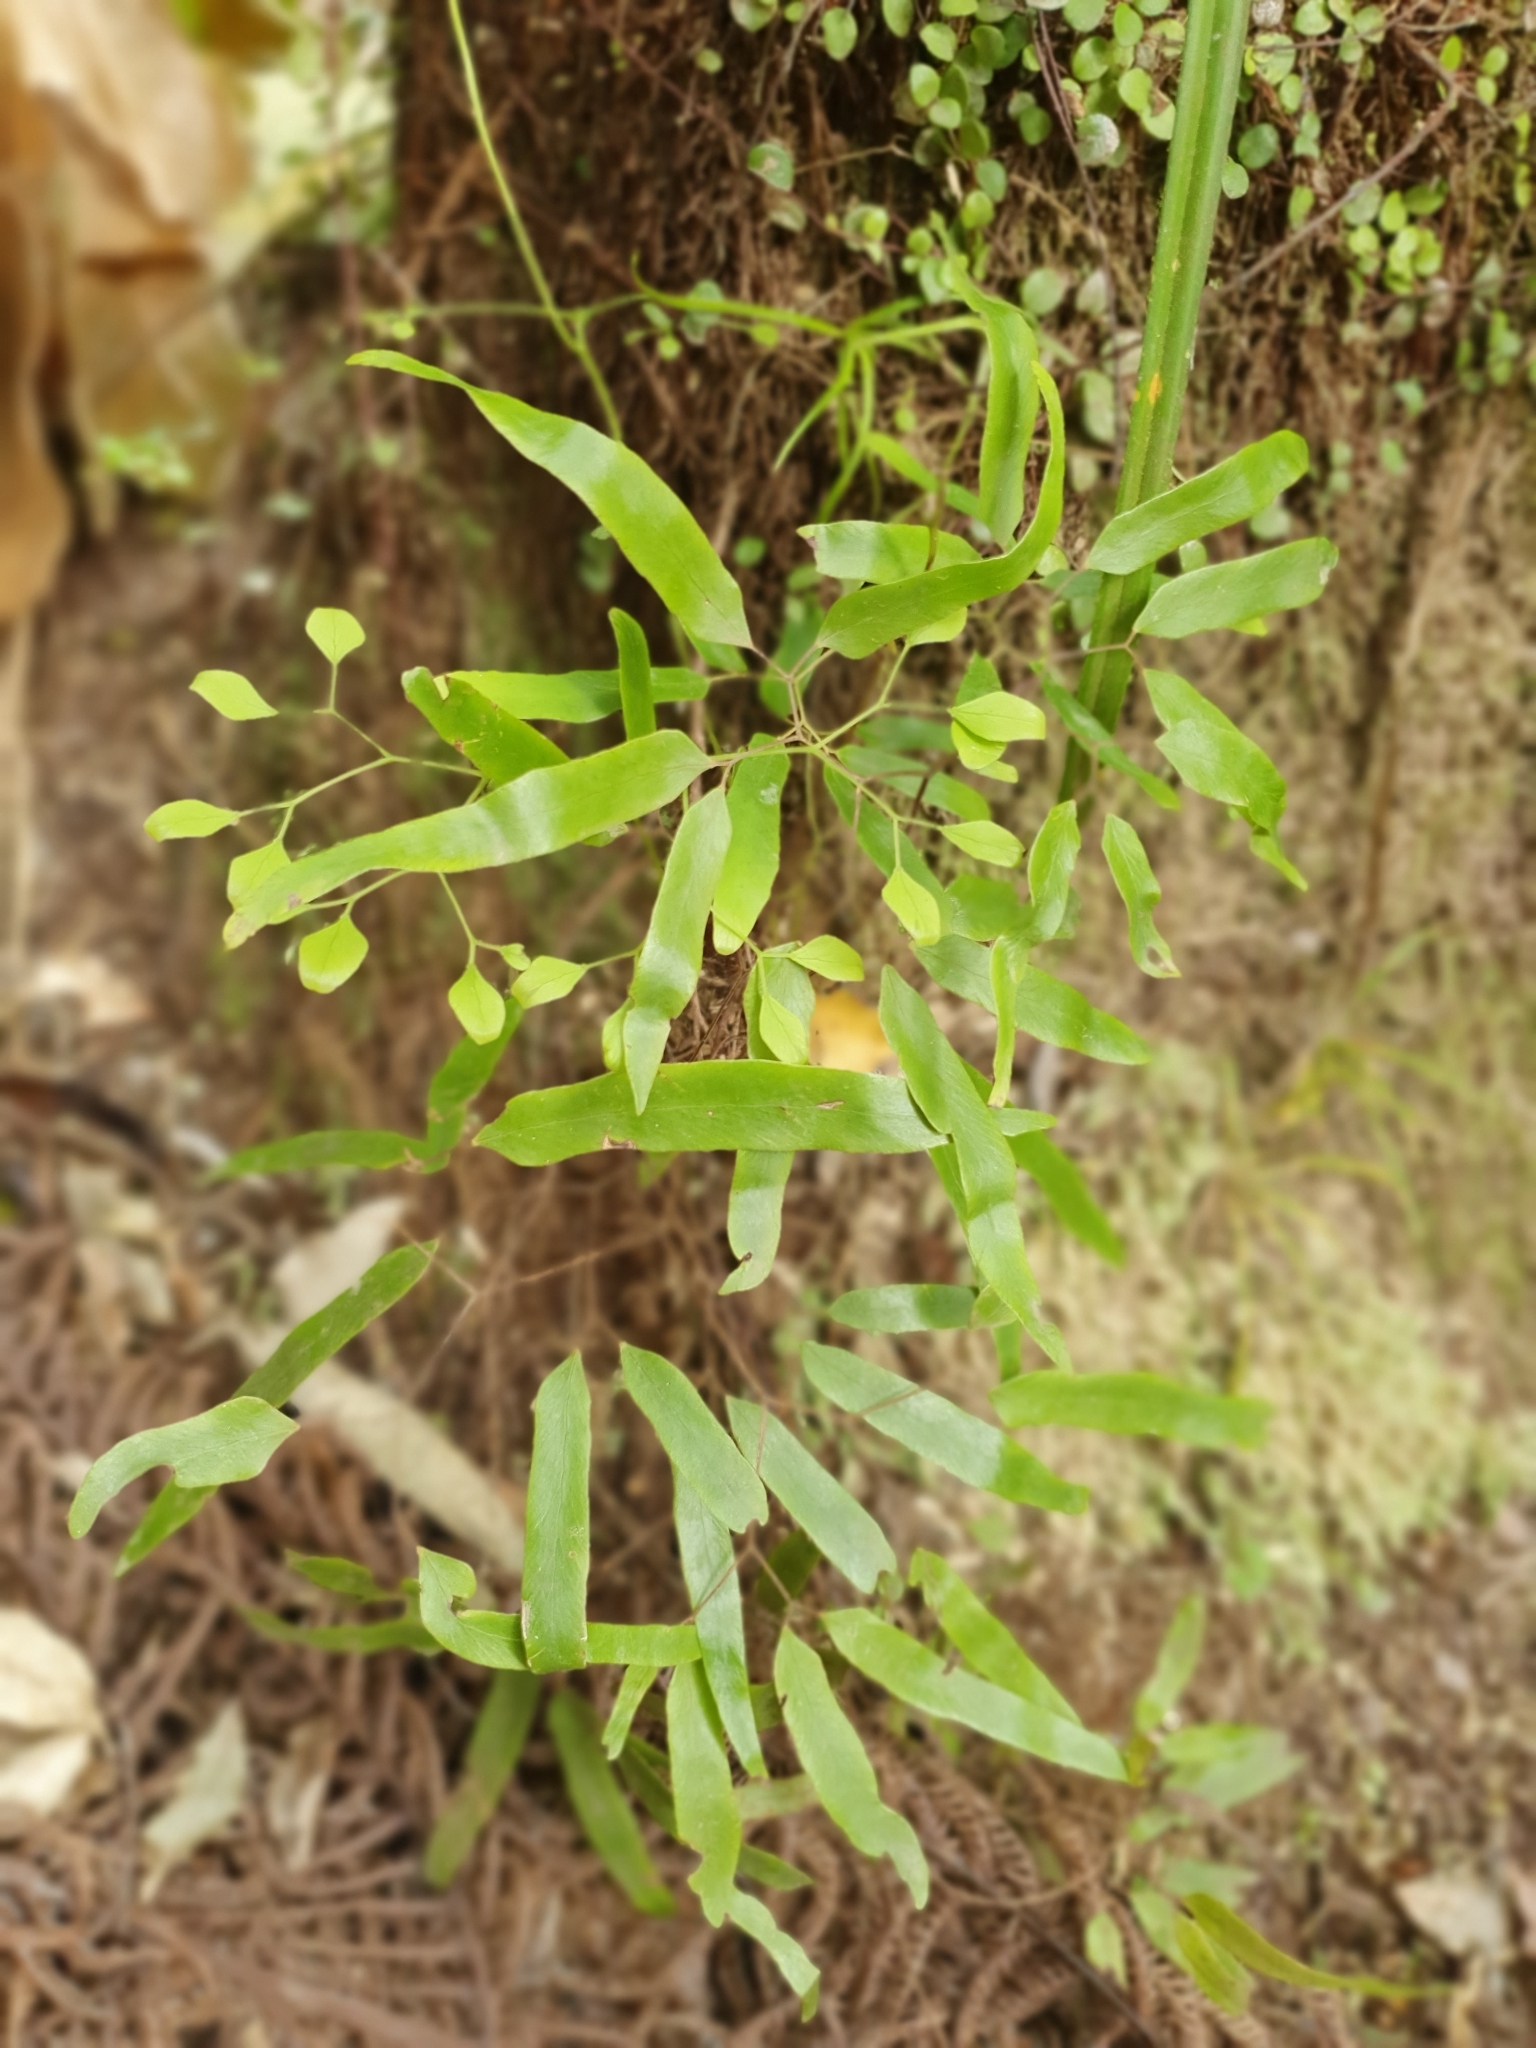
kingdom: Plantae
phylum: Tracheophyta
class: Polypodiopsida
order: Schizaeales
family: Lygodiaceae
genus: Lygodium
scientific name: Lygodium articulatum
